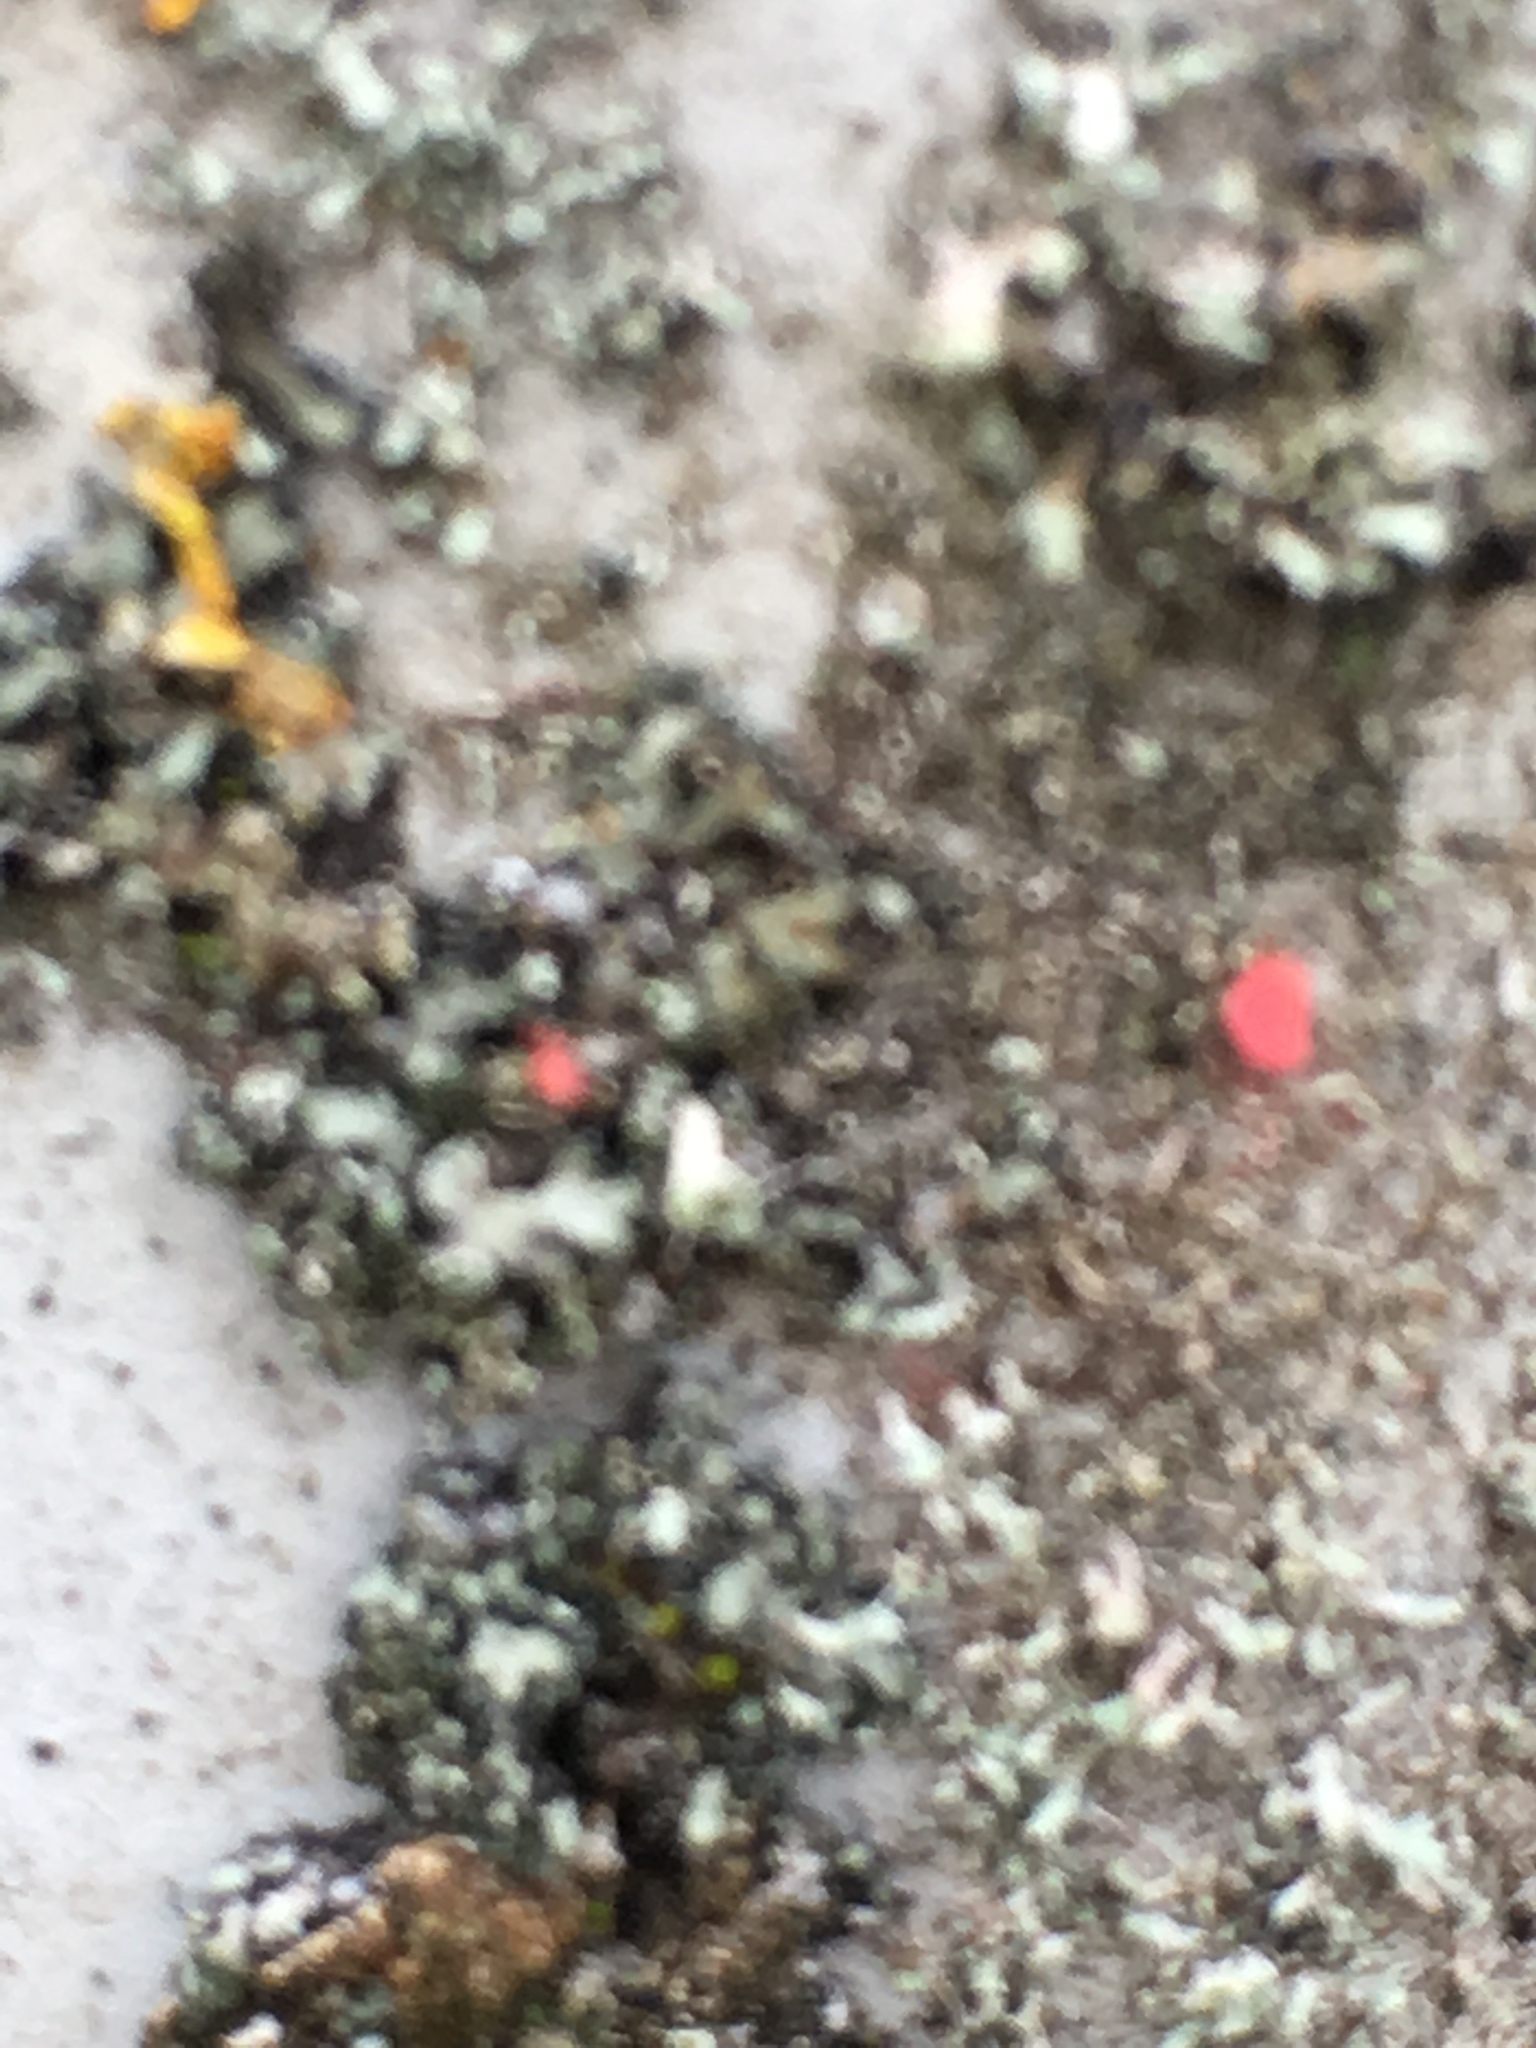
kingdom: Fungi
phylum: Ascomycota
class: Sordariomycetes
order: Hypocreales
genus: Illosporiopsis
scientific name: Illosporiopsis christiansenii
